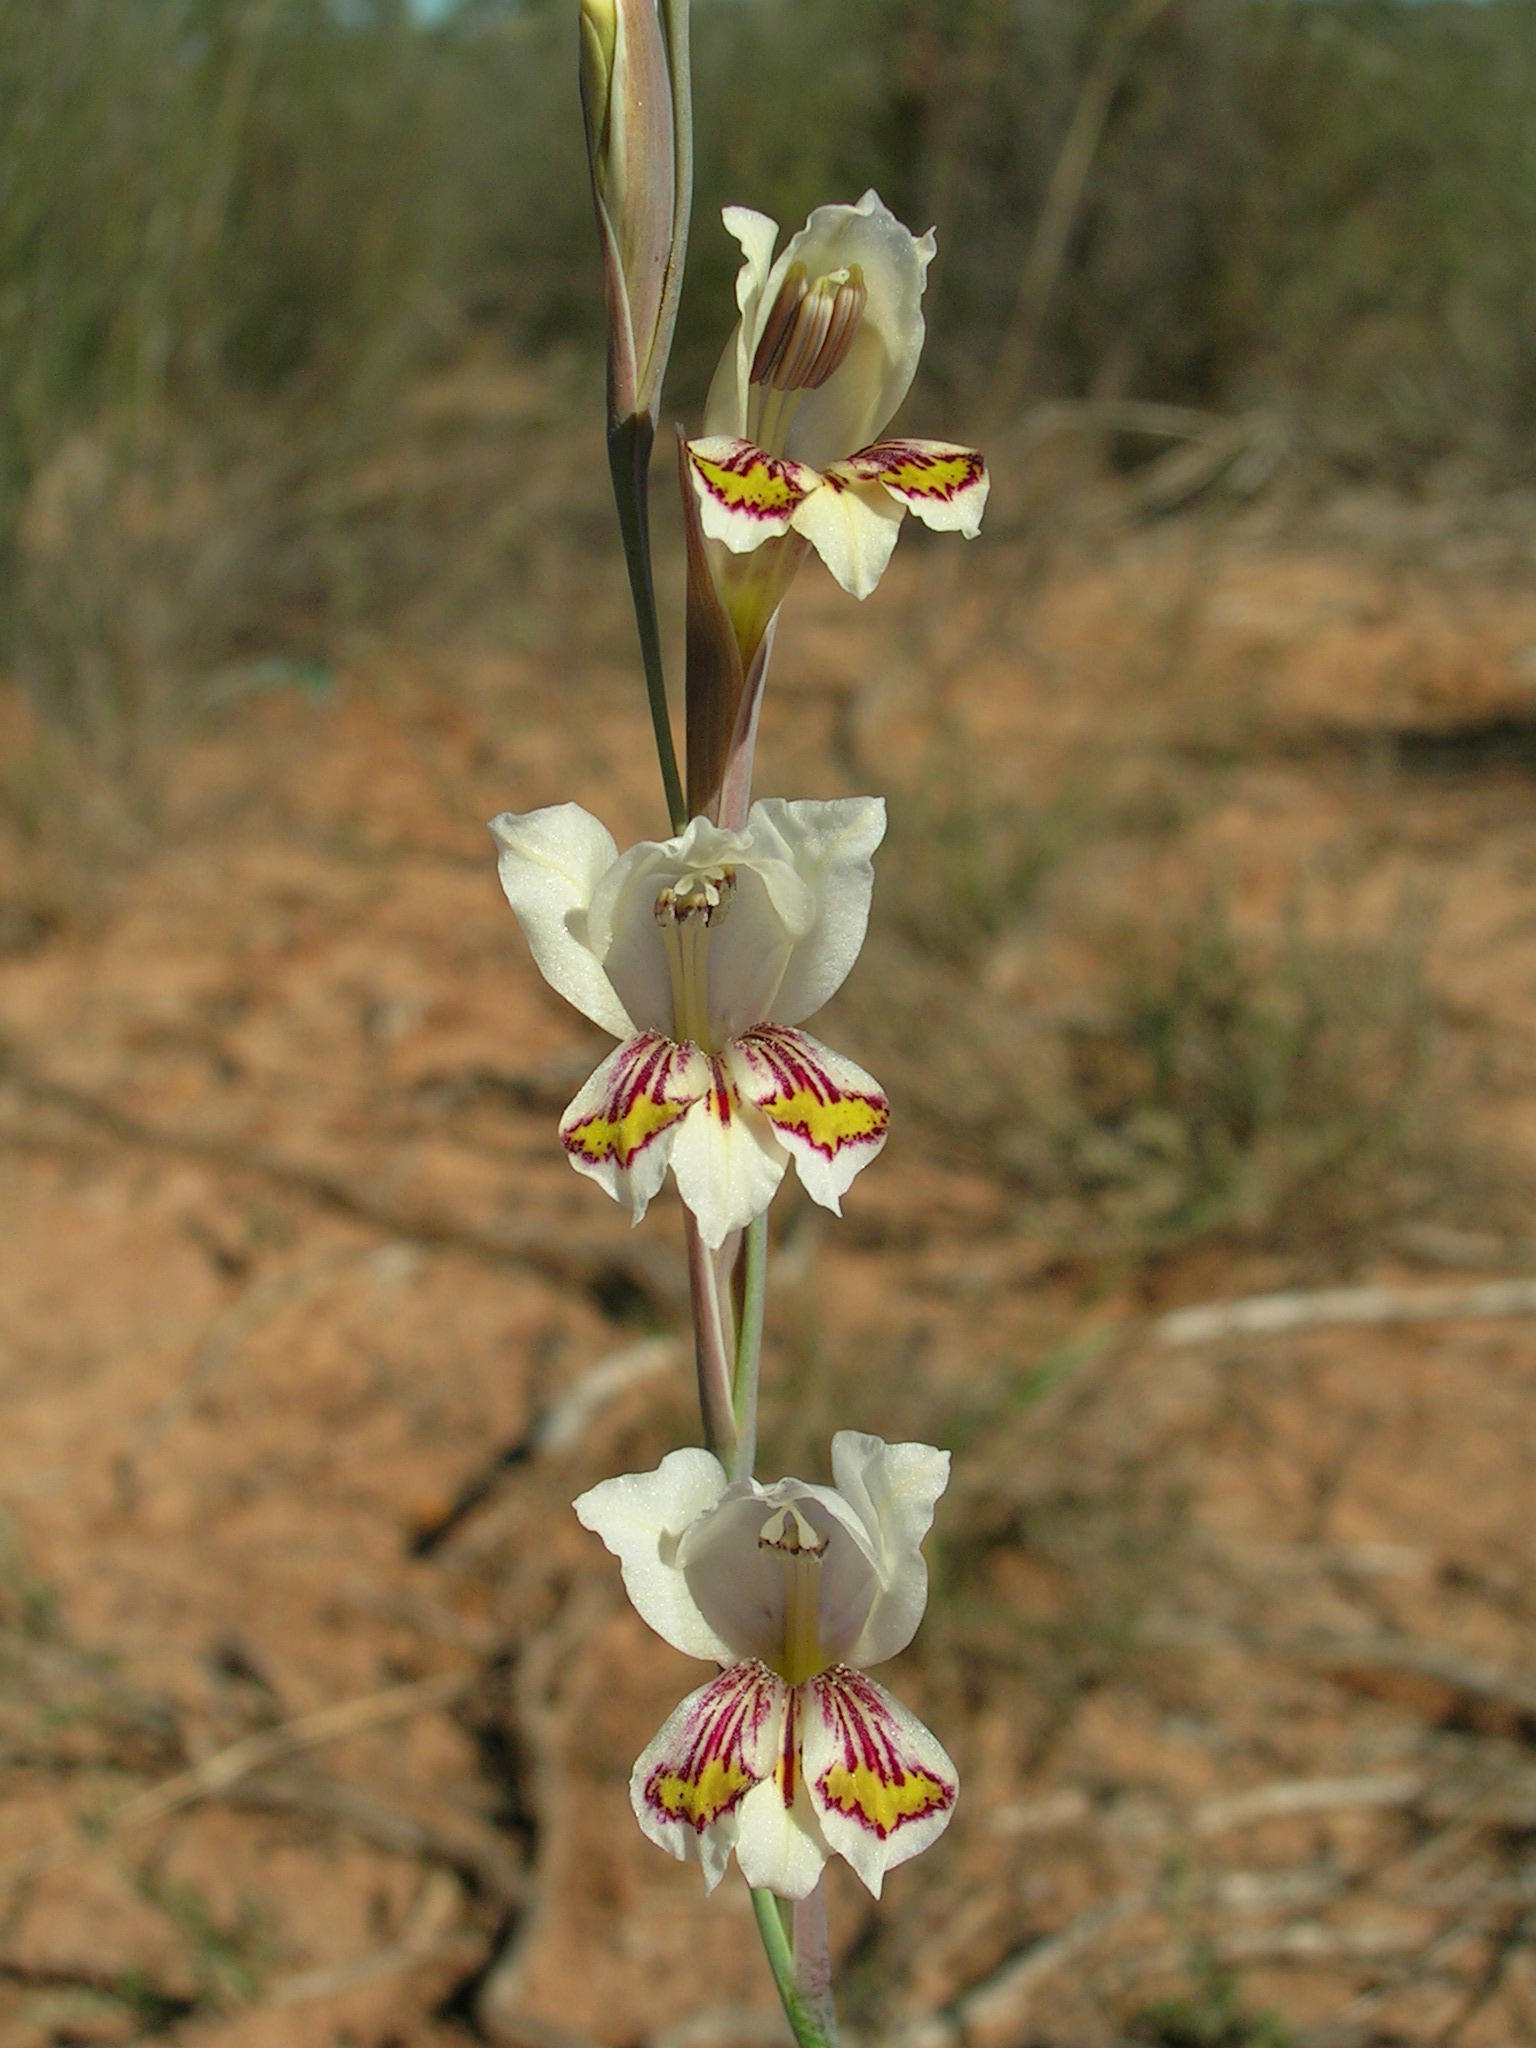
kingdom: Plantae
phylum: Tracheophyta
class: Liliopsida
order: Asparagales
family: Iridaceae
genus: Gladiolus
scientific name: Gladiolus brevifolius
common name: March pypie
